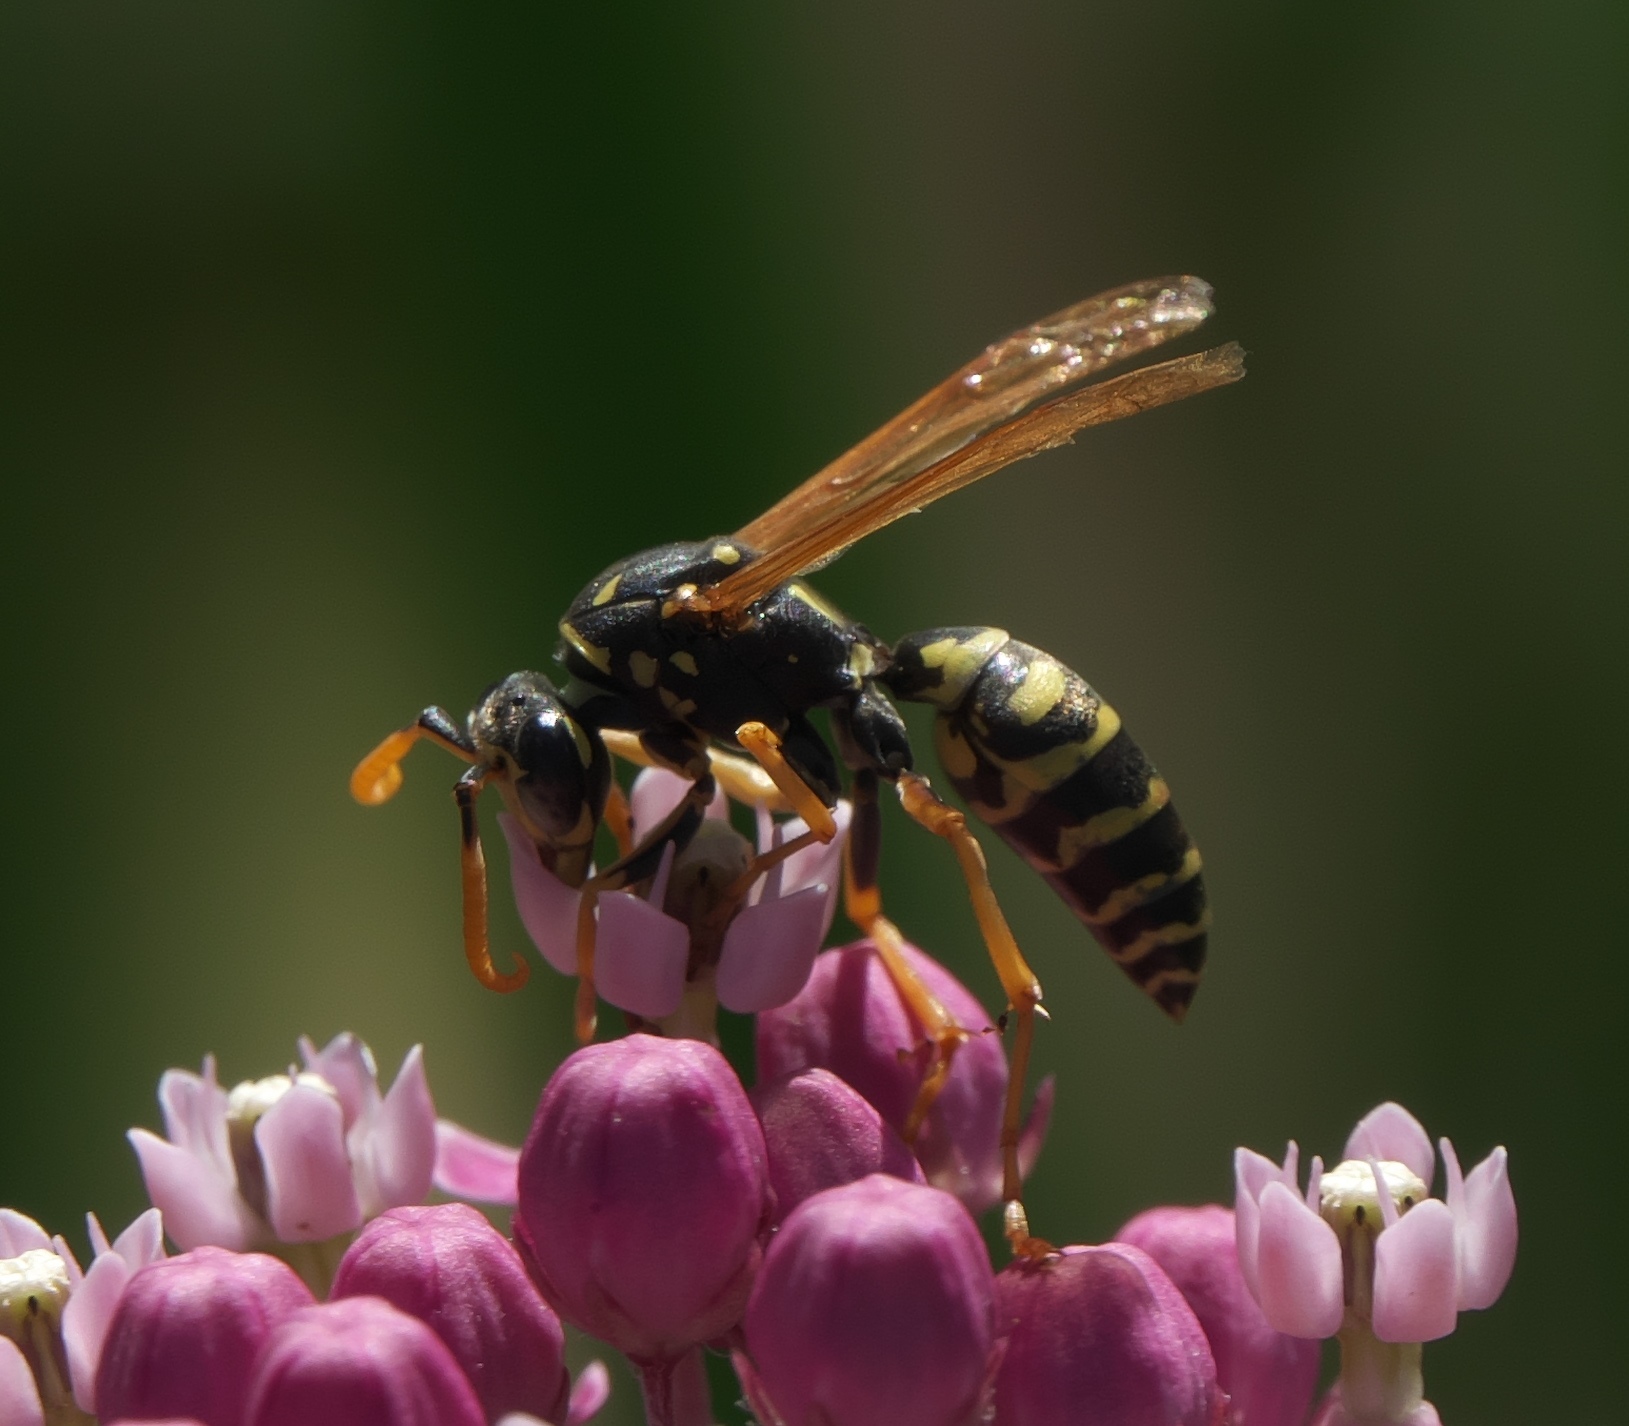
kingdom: Animalia
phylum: Arthropoda
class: Insecta
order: Hymenoptera
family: Eumenidae
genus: Polistes
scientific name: Polistes dominula
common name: Paper wasp
